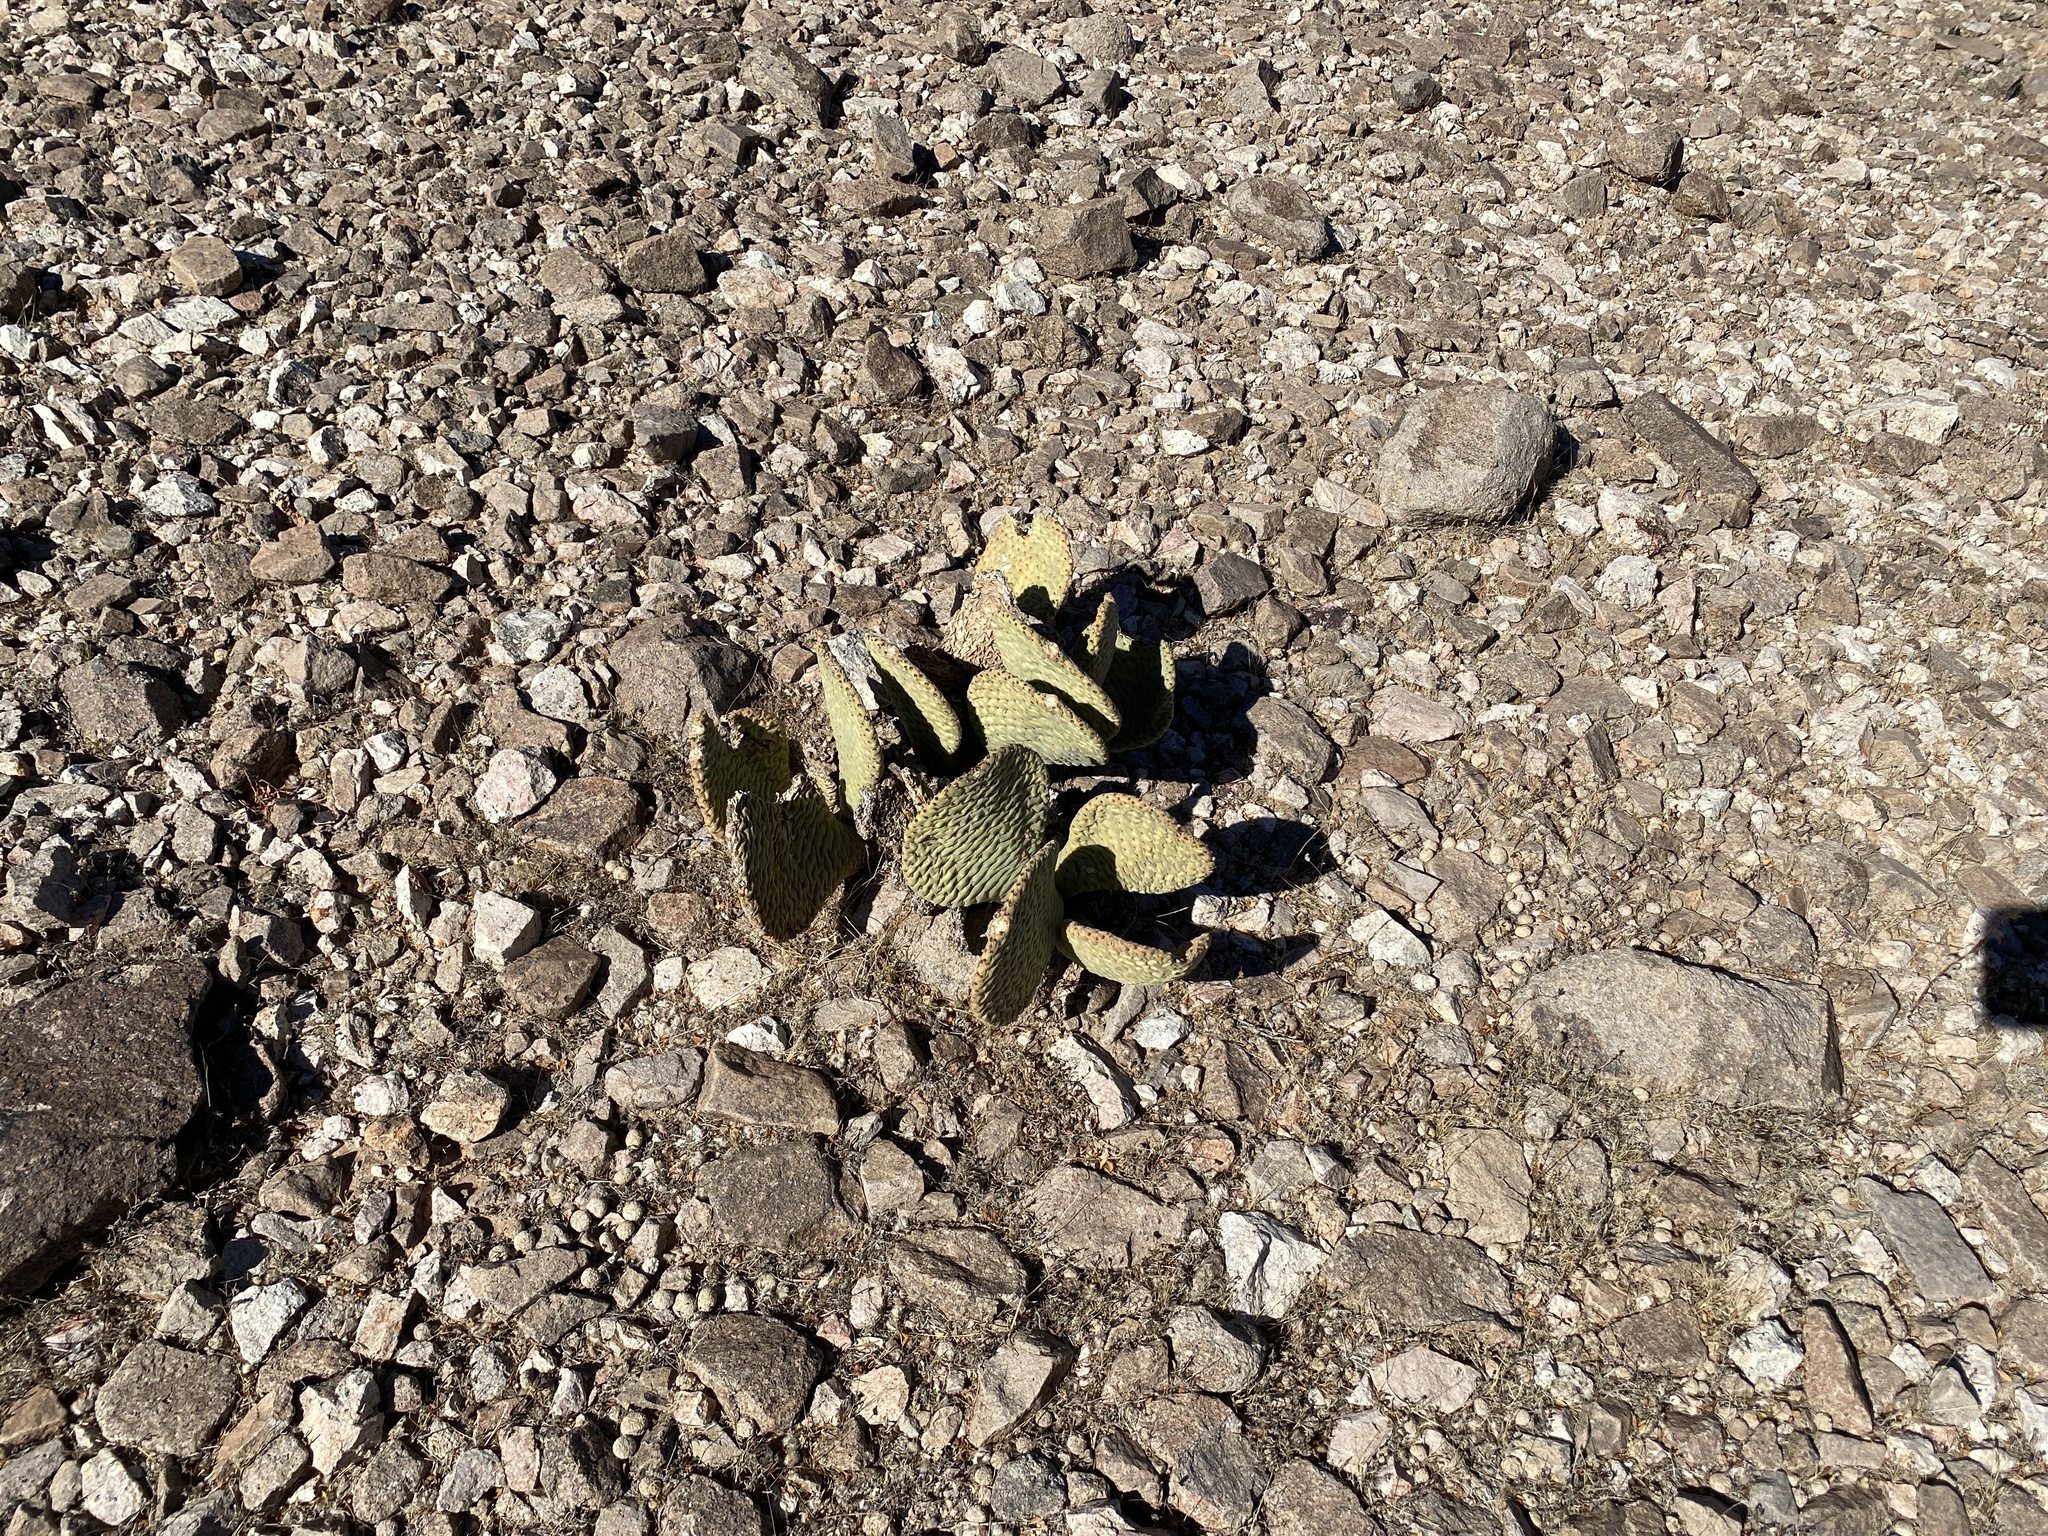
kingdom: Plantae
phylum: Tracheophyta
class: Magnoliopsida
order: Caryophyllales
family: Cactaceae
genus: Opuntia
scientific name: Opuntia basilaris
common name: Beavertail prickly-pear
